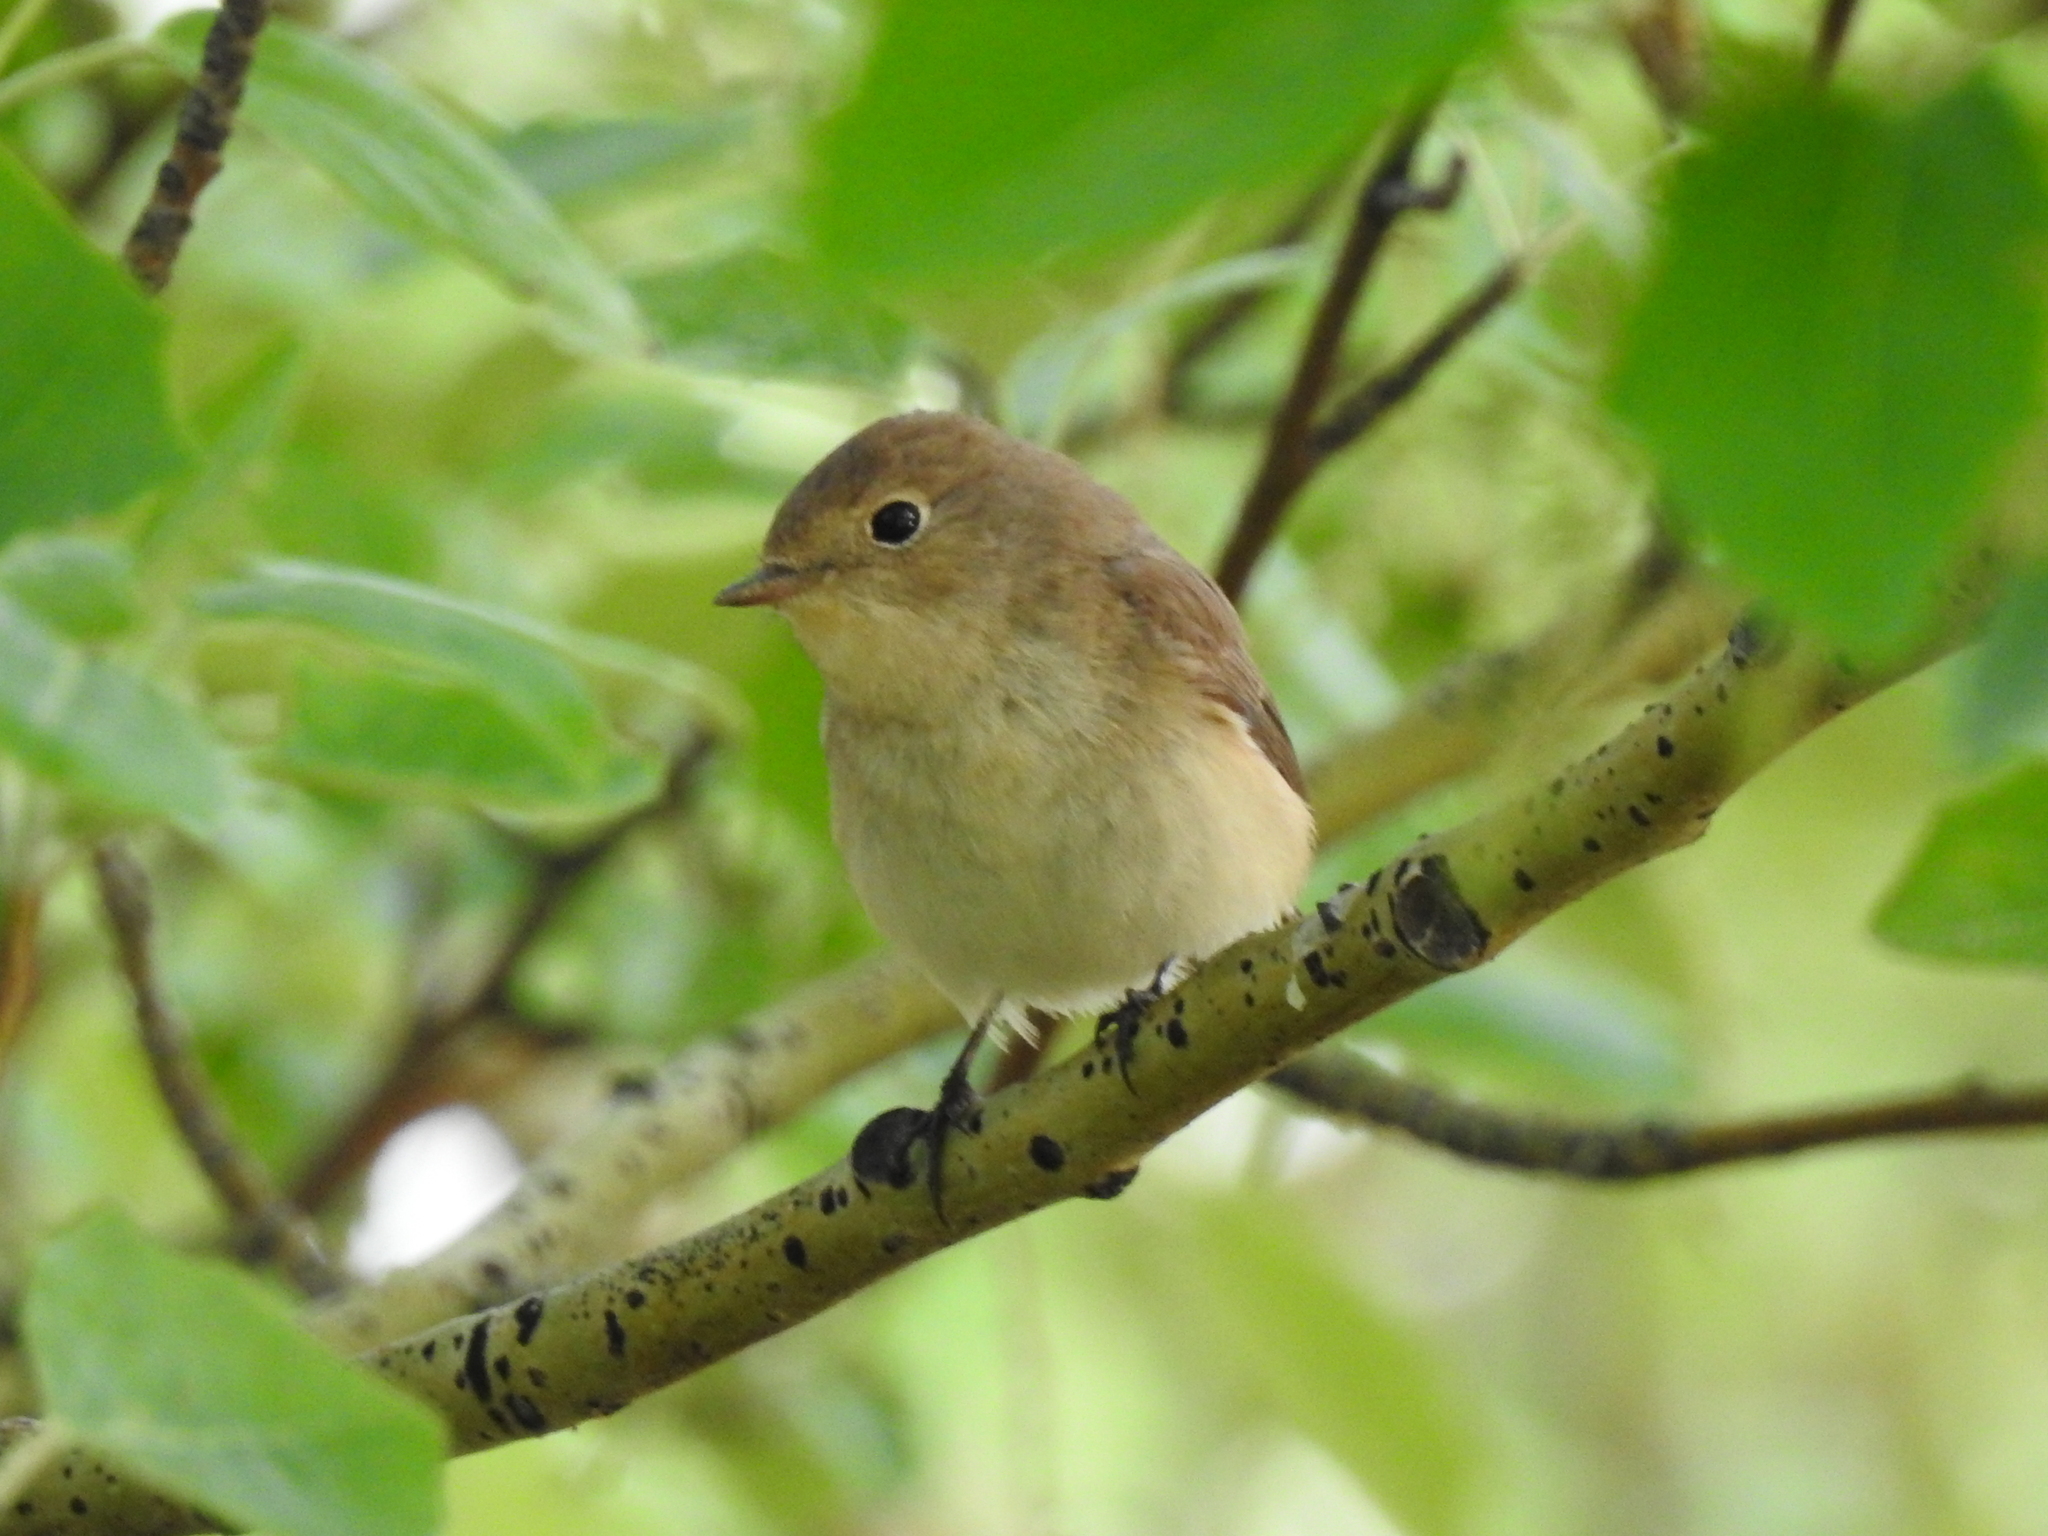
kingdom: Animalia
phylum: Chordata
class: Aves
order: Passeriformes
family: Muscicapidae
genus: Ficedula
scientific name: Ficedula parva
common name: Red-breasted flycatcher
